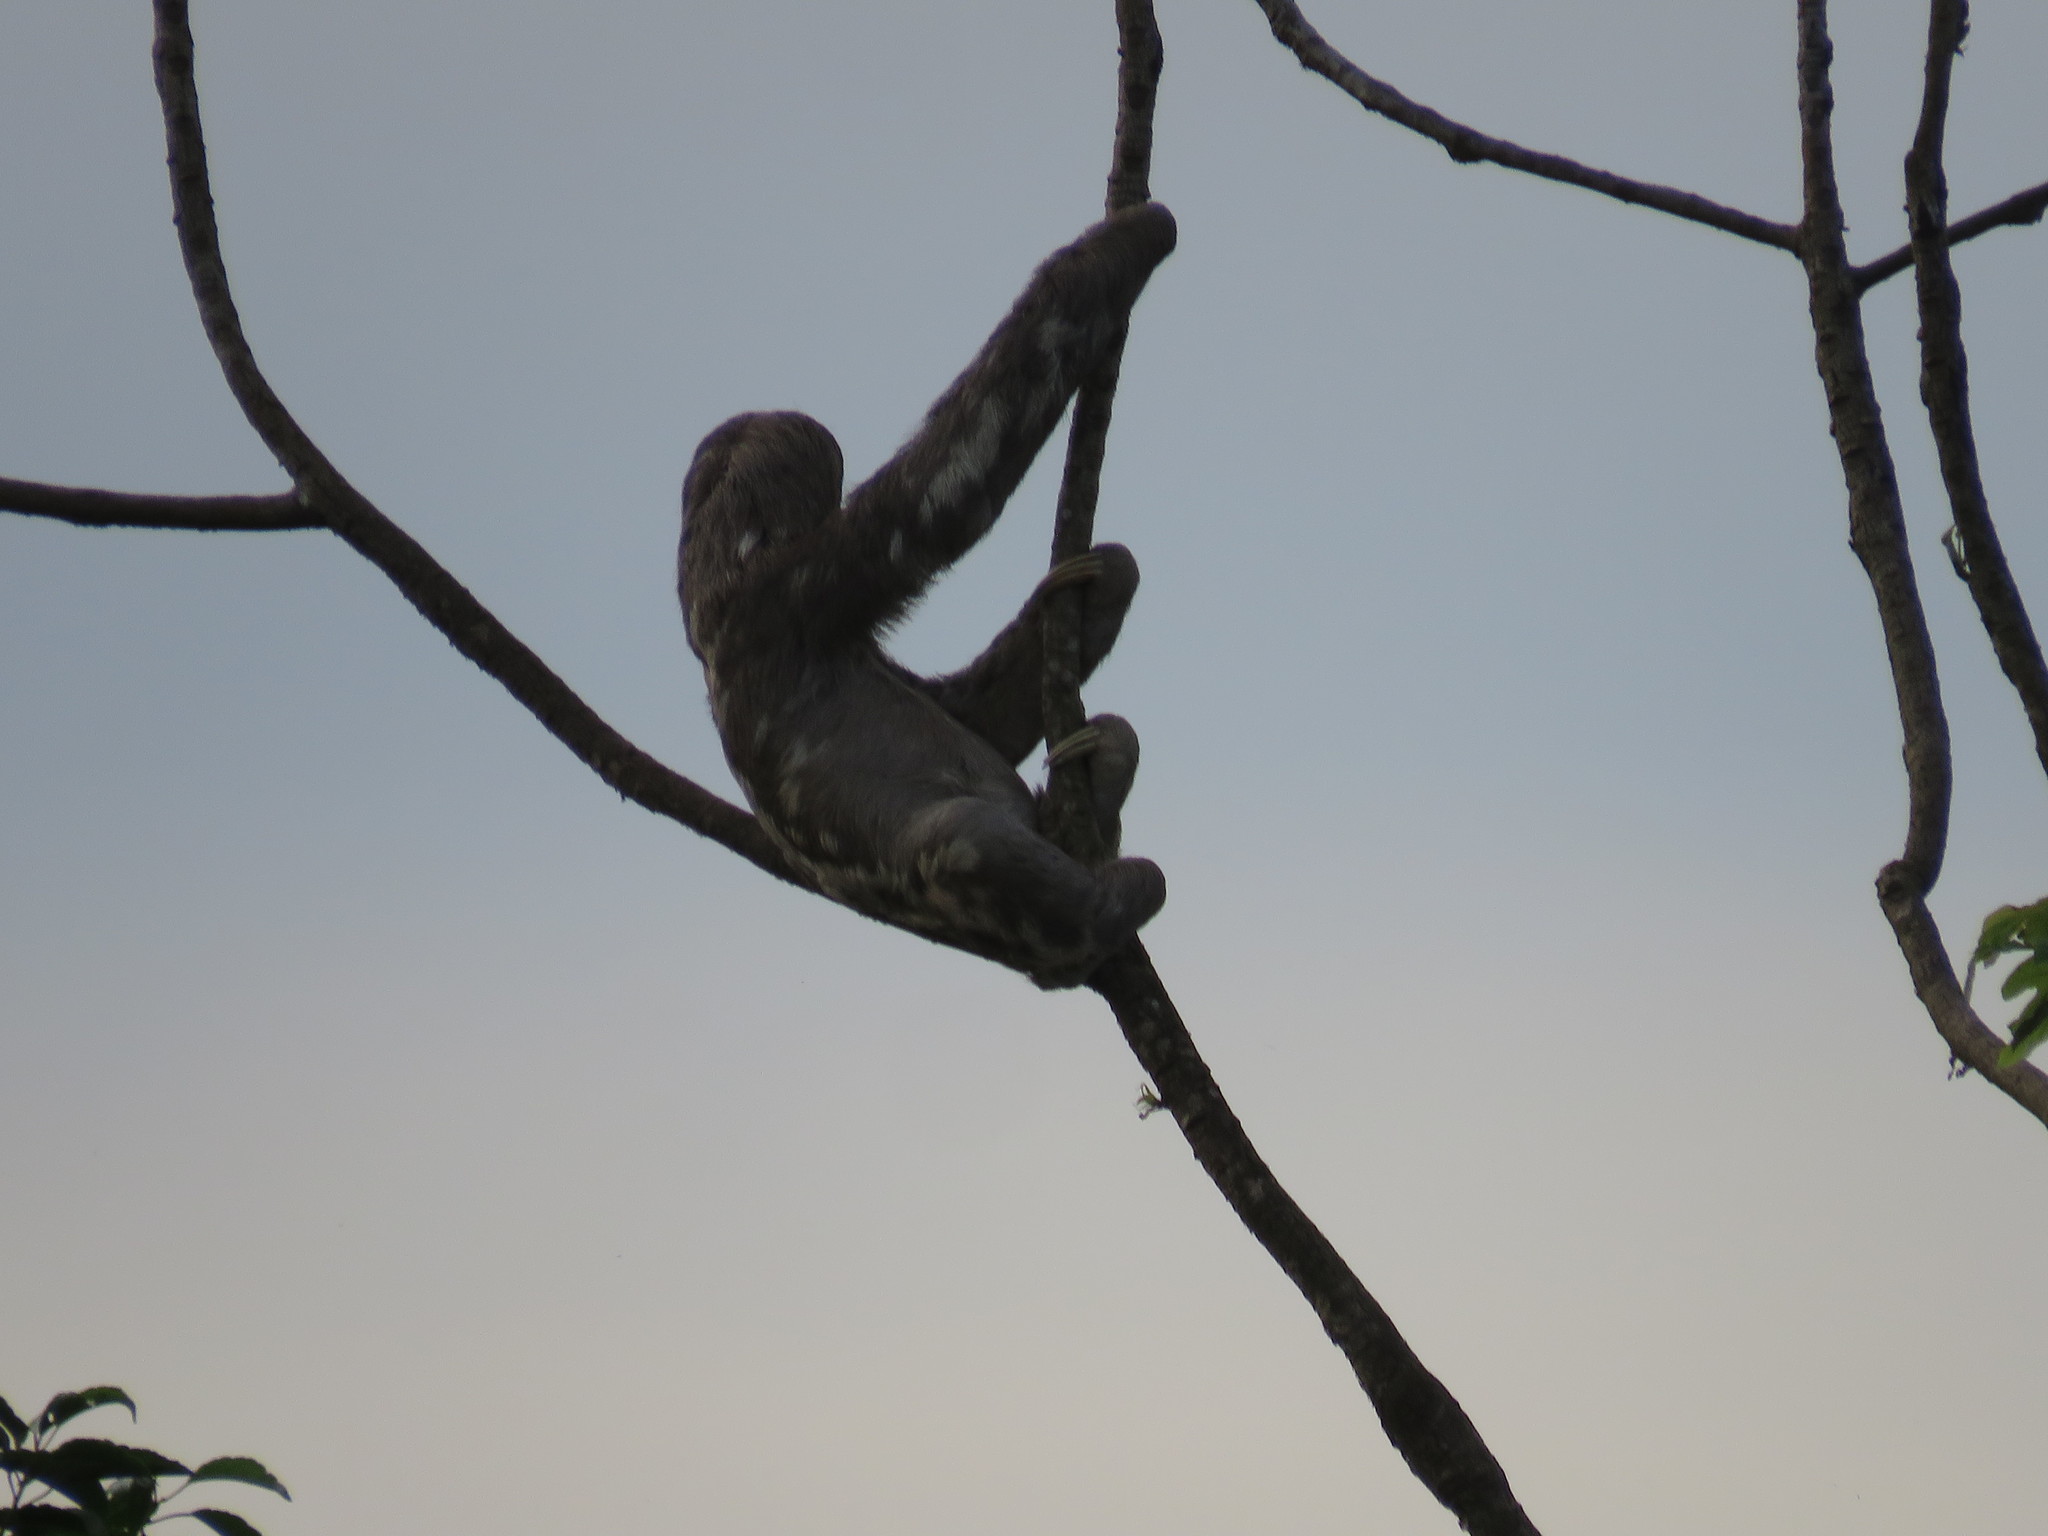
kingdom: Animalia
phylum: Chordata
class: Mammalia
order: Pilosa
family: Bradypodidae
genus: Bradypus
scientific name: Bradypus variegatus
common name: Brown-throated three-toed sloth
